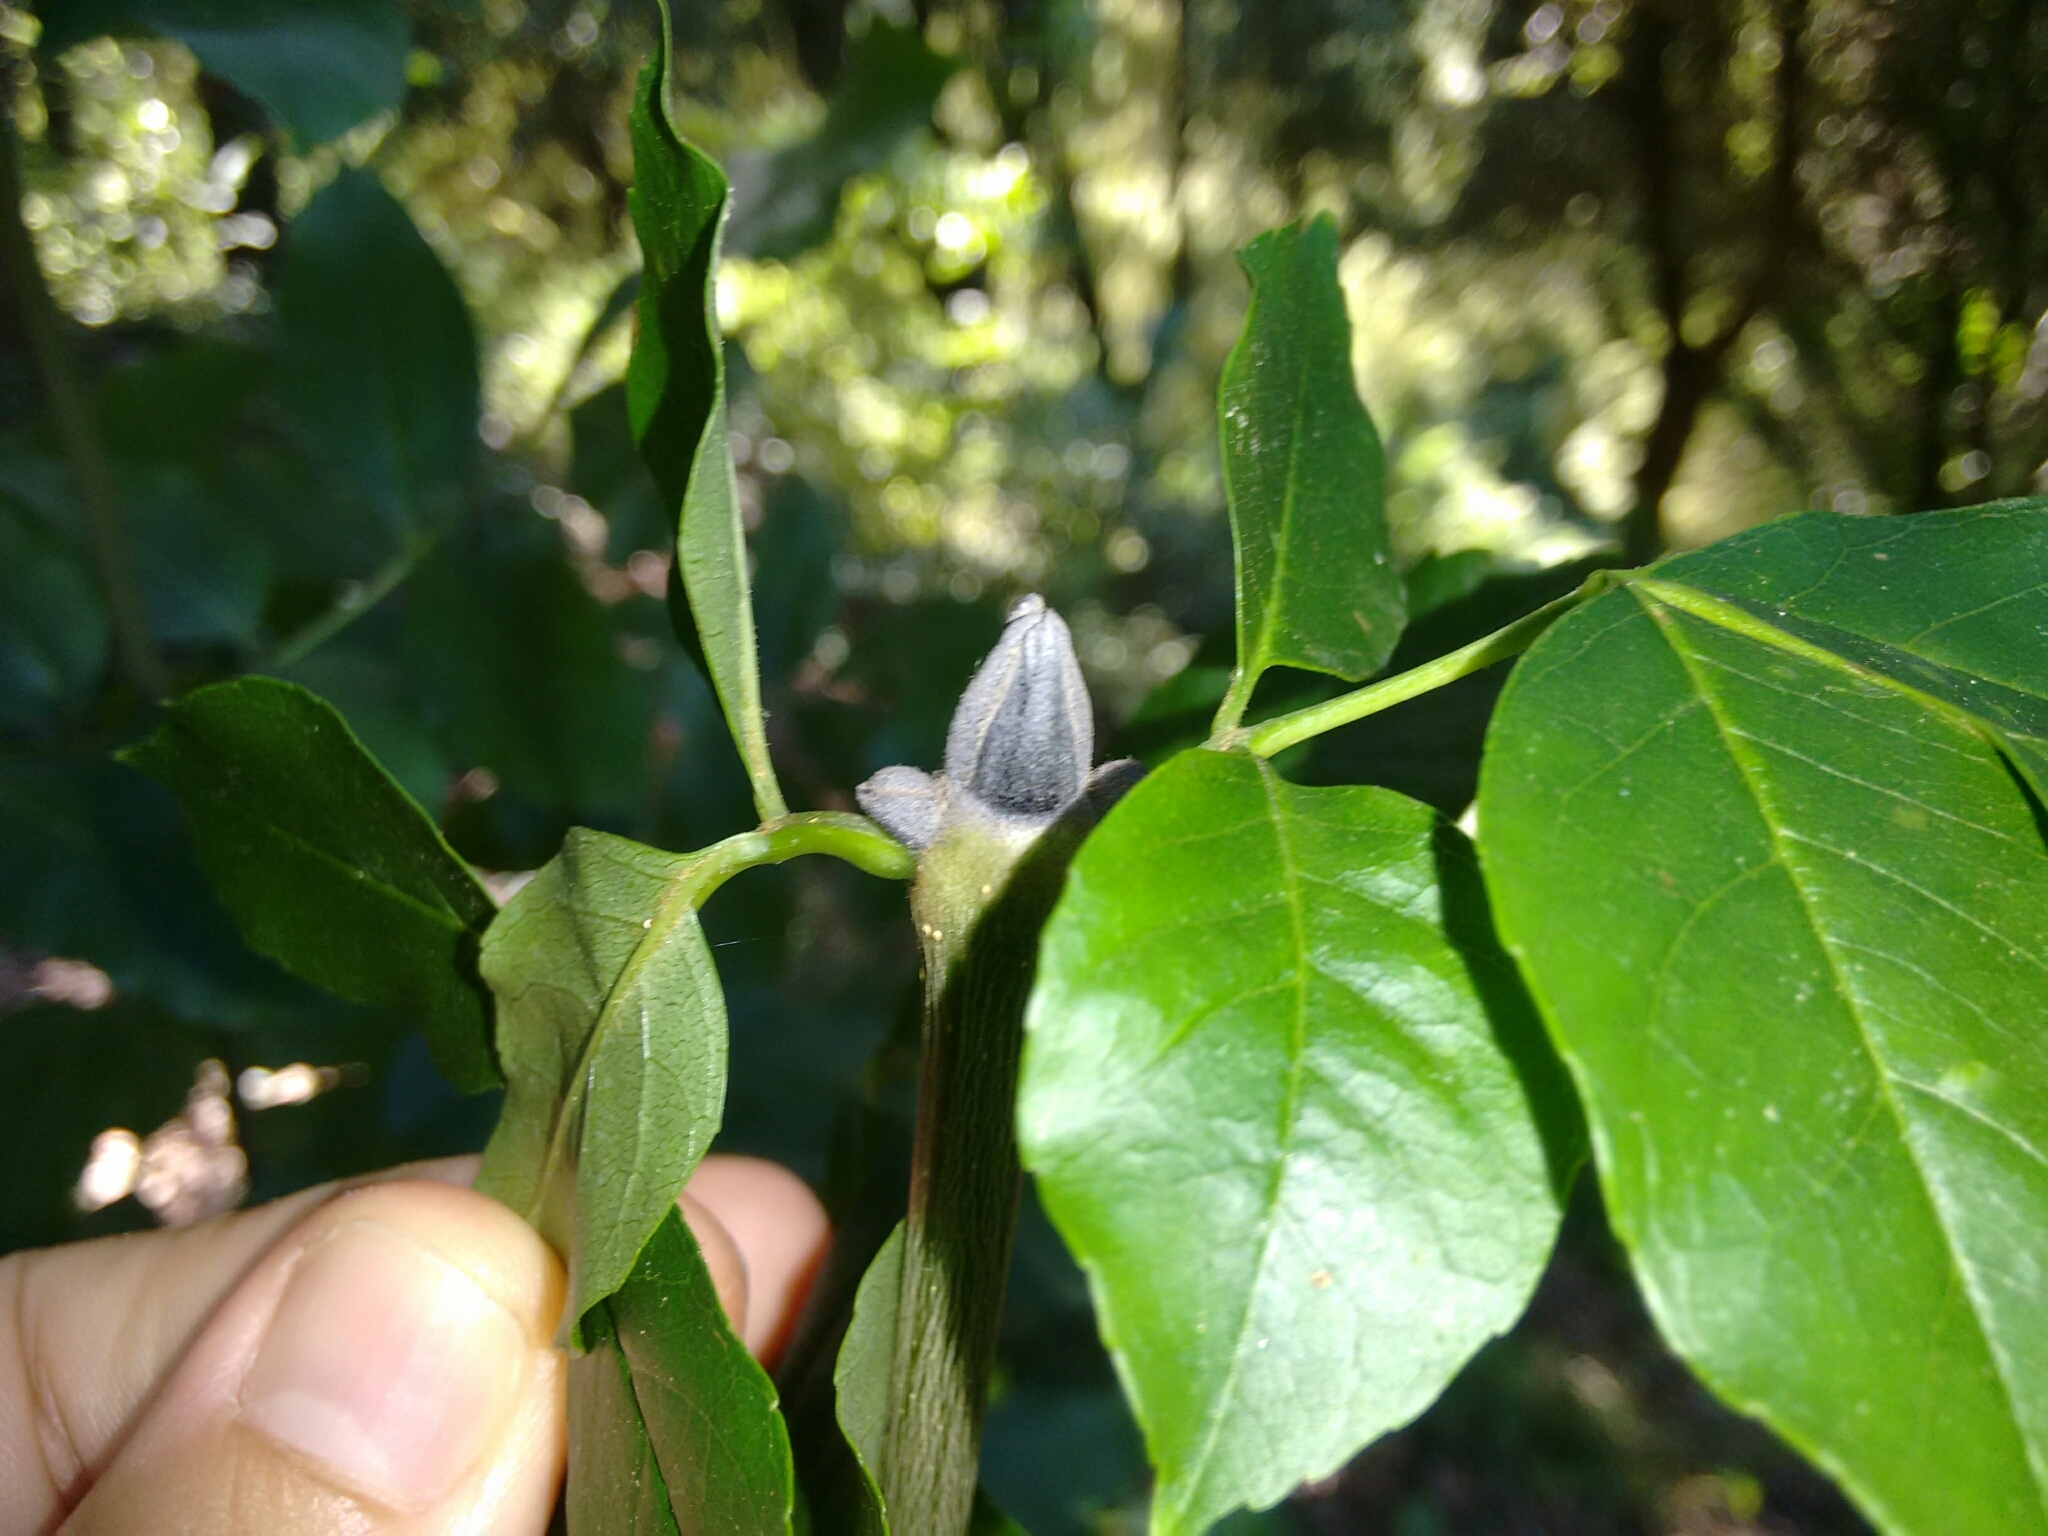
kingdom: Plantae
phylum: Tracheophyta
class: Magnoliopsida
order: Lamiales
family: Oleaceae
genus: Fraxinus
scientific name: Fraxinus ornus
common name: Manna ash
